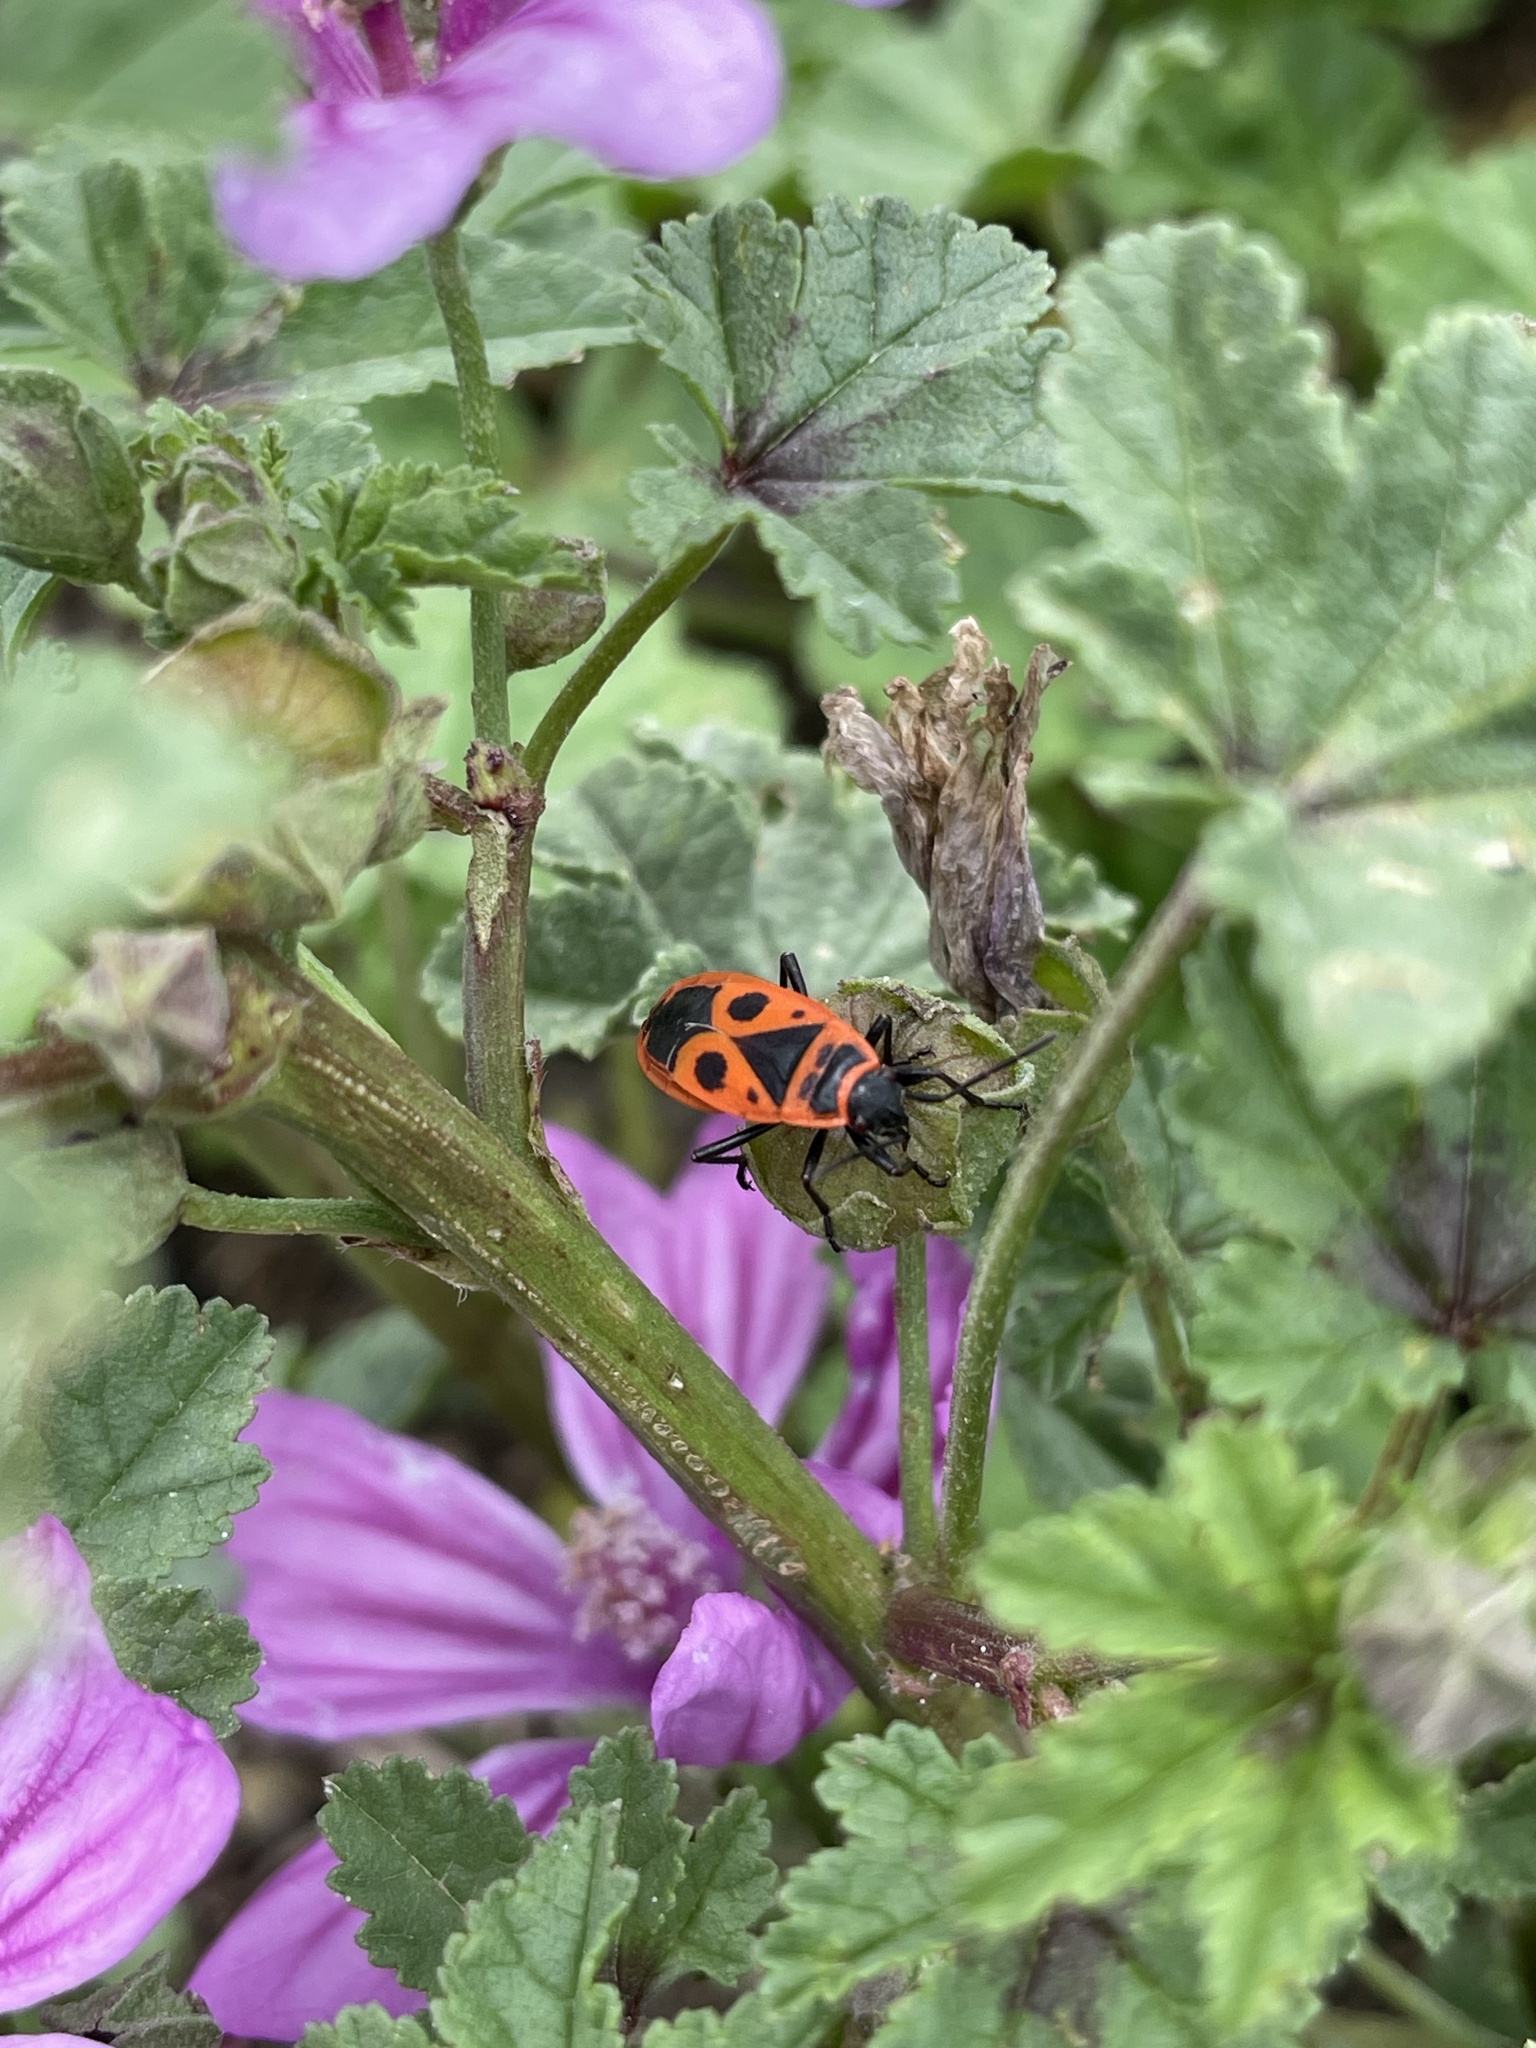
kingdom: Animalia
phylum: Arthropoda
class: Insecta
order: Hemiptera
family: Pyrrhocoridae
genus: Pyrrhocoris
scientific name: Pyrrhocoris apterus
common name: Firebug
